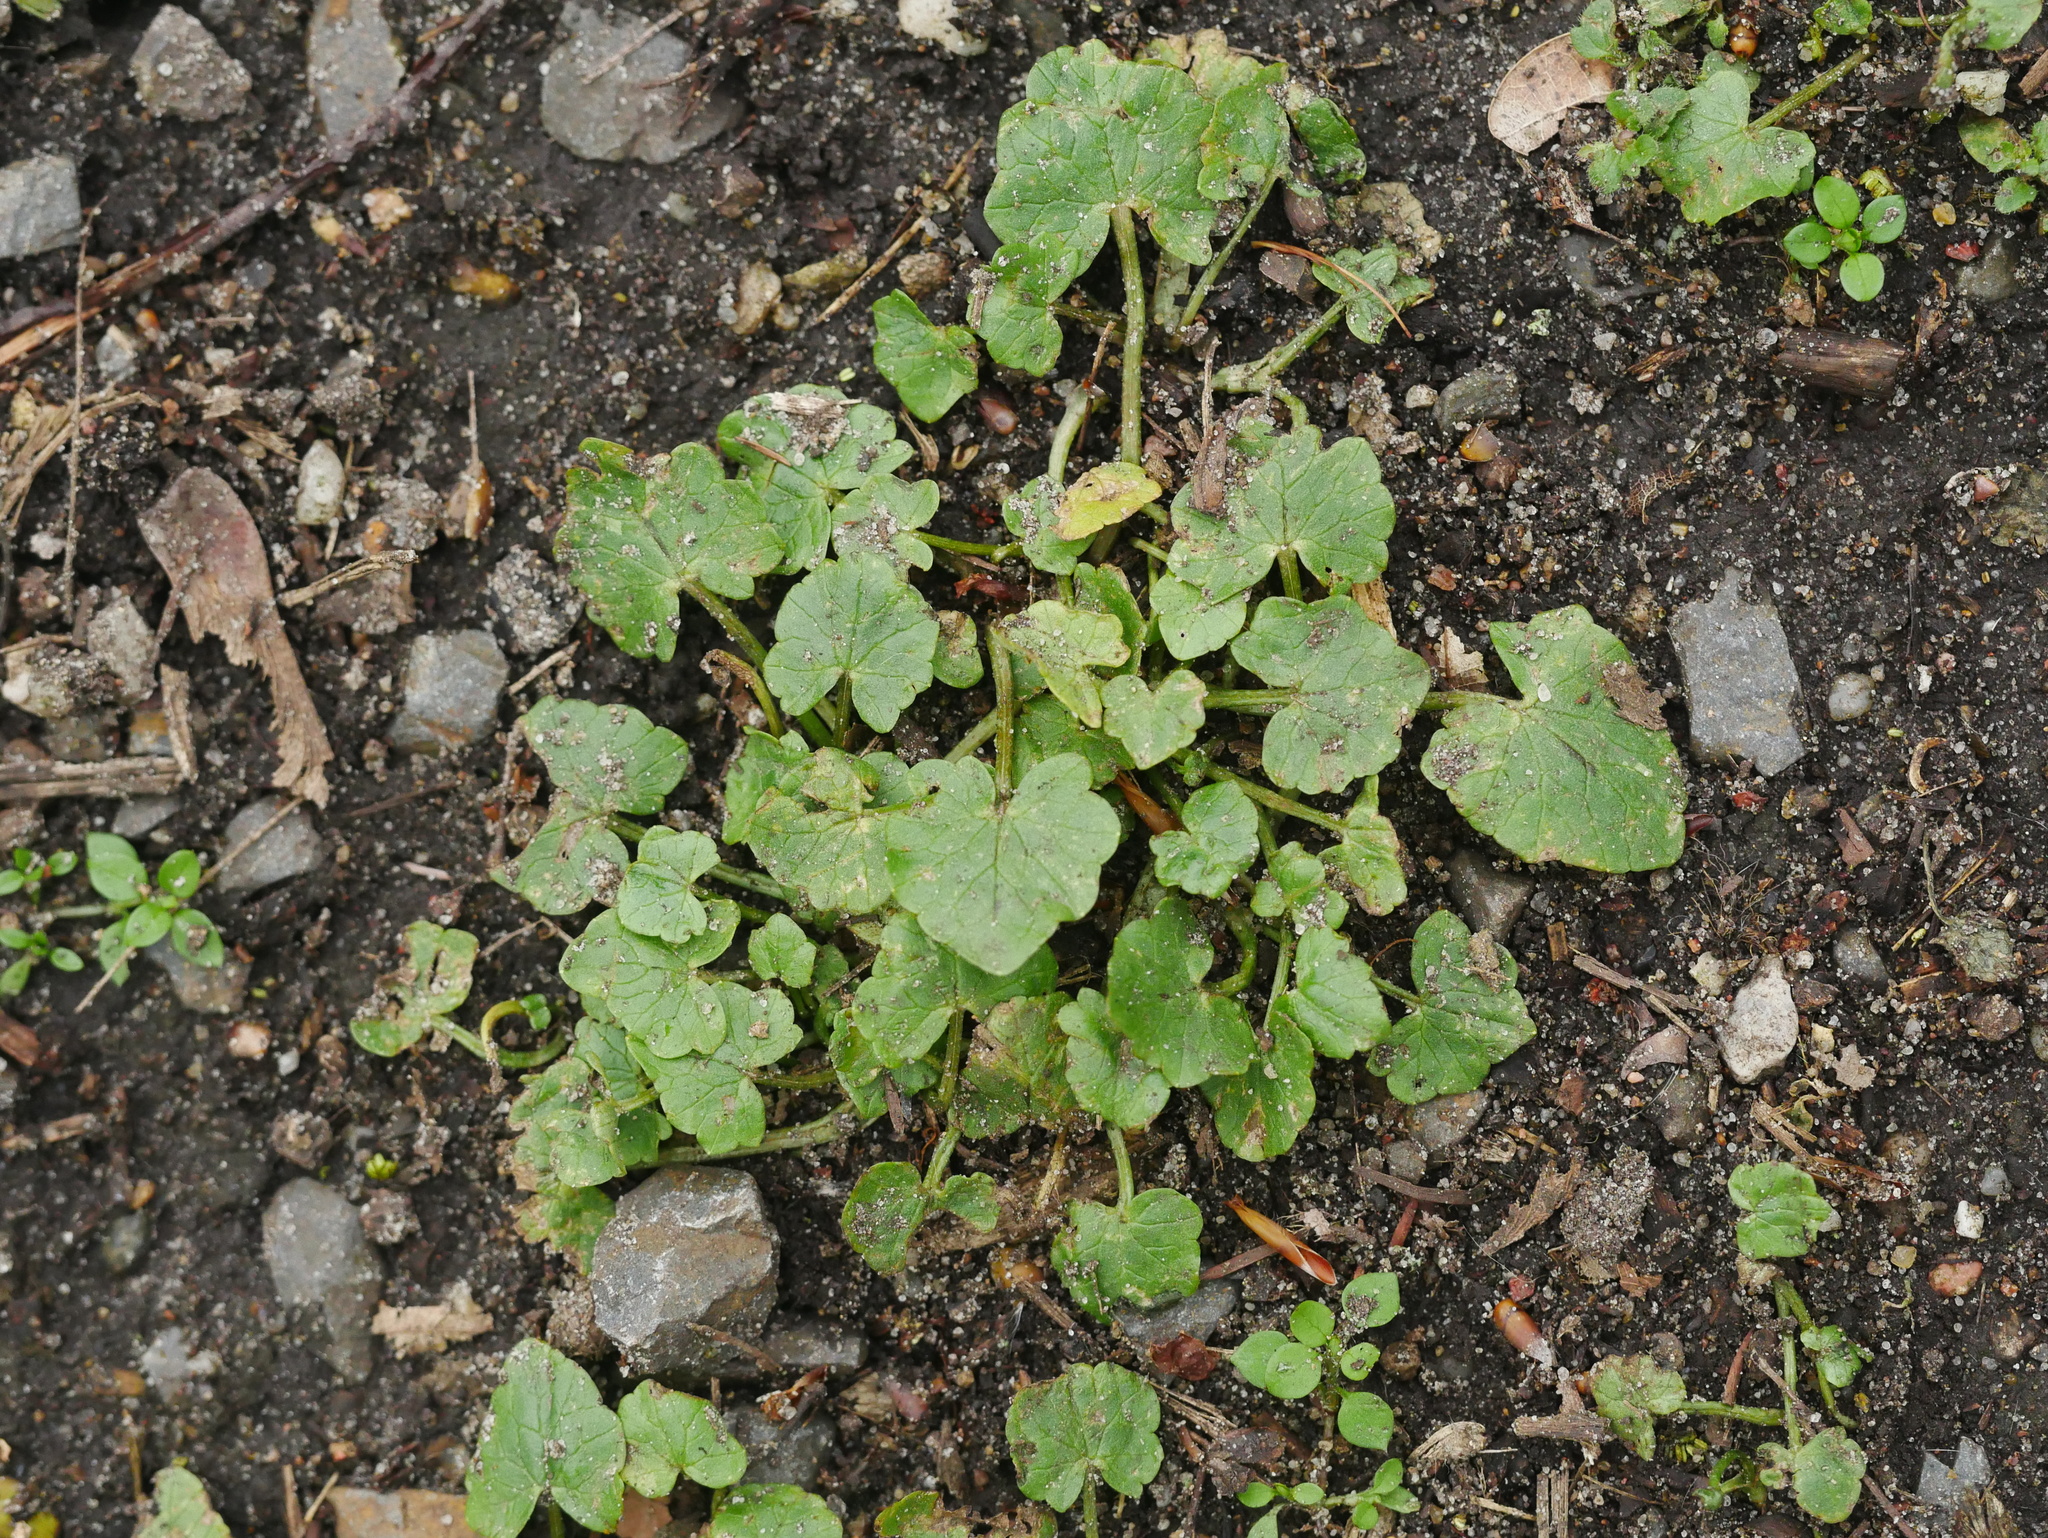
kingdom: Plantae
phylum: Tracheophyta
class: Magnoliopsida
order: Ranunculales
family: Ranunculaceae
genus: Ficaria
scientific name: Ficaria verna
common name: Lesser celandine
